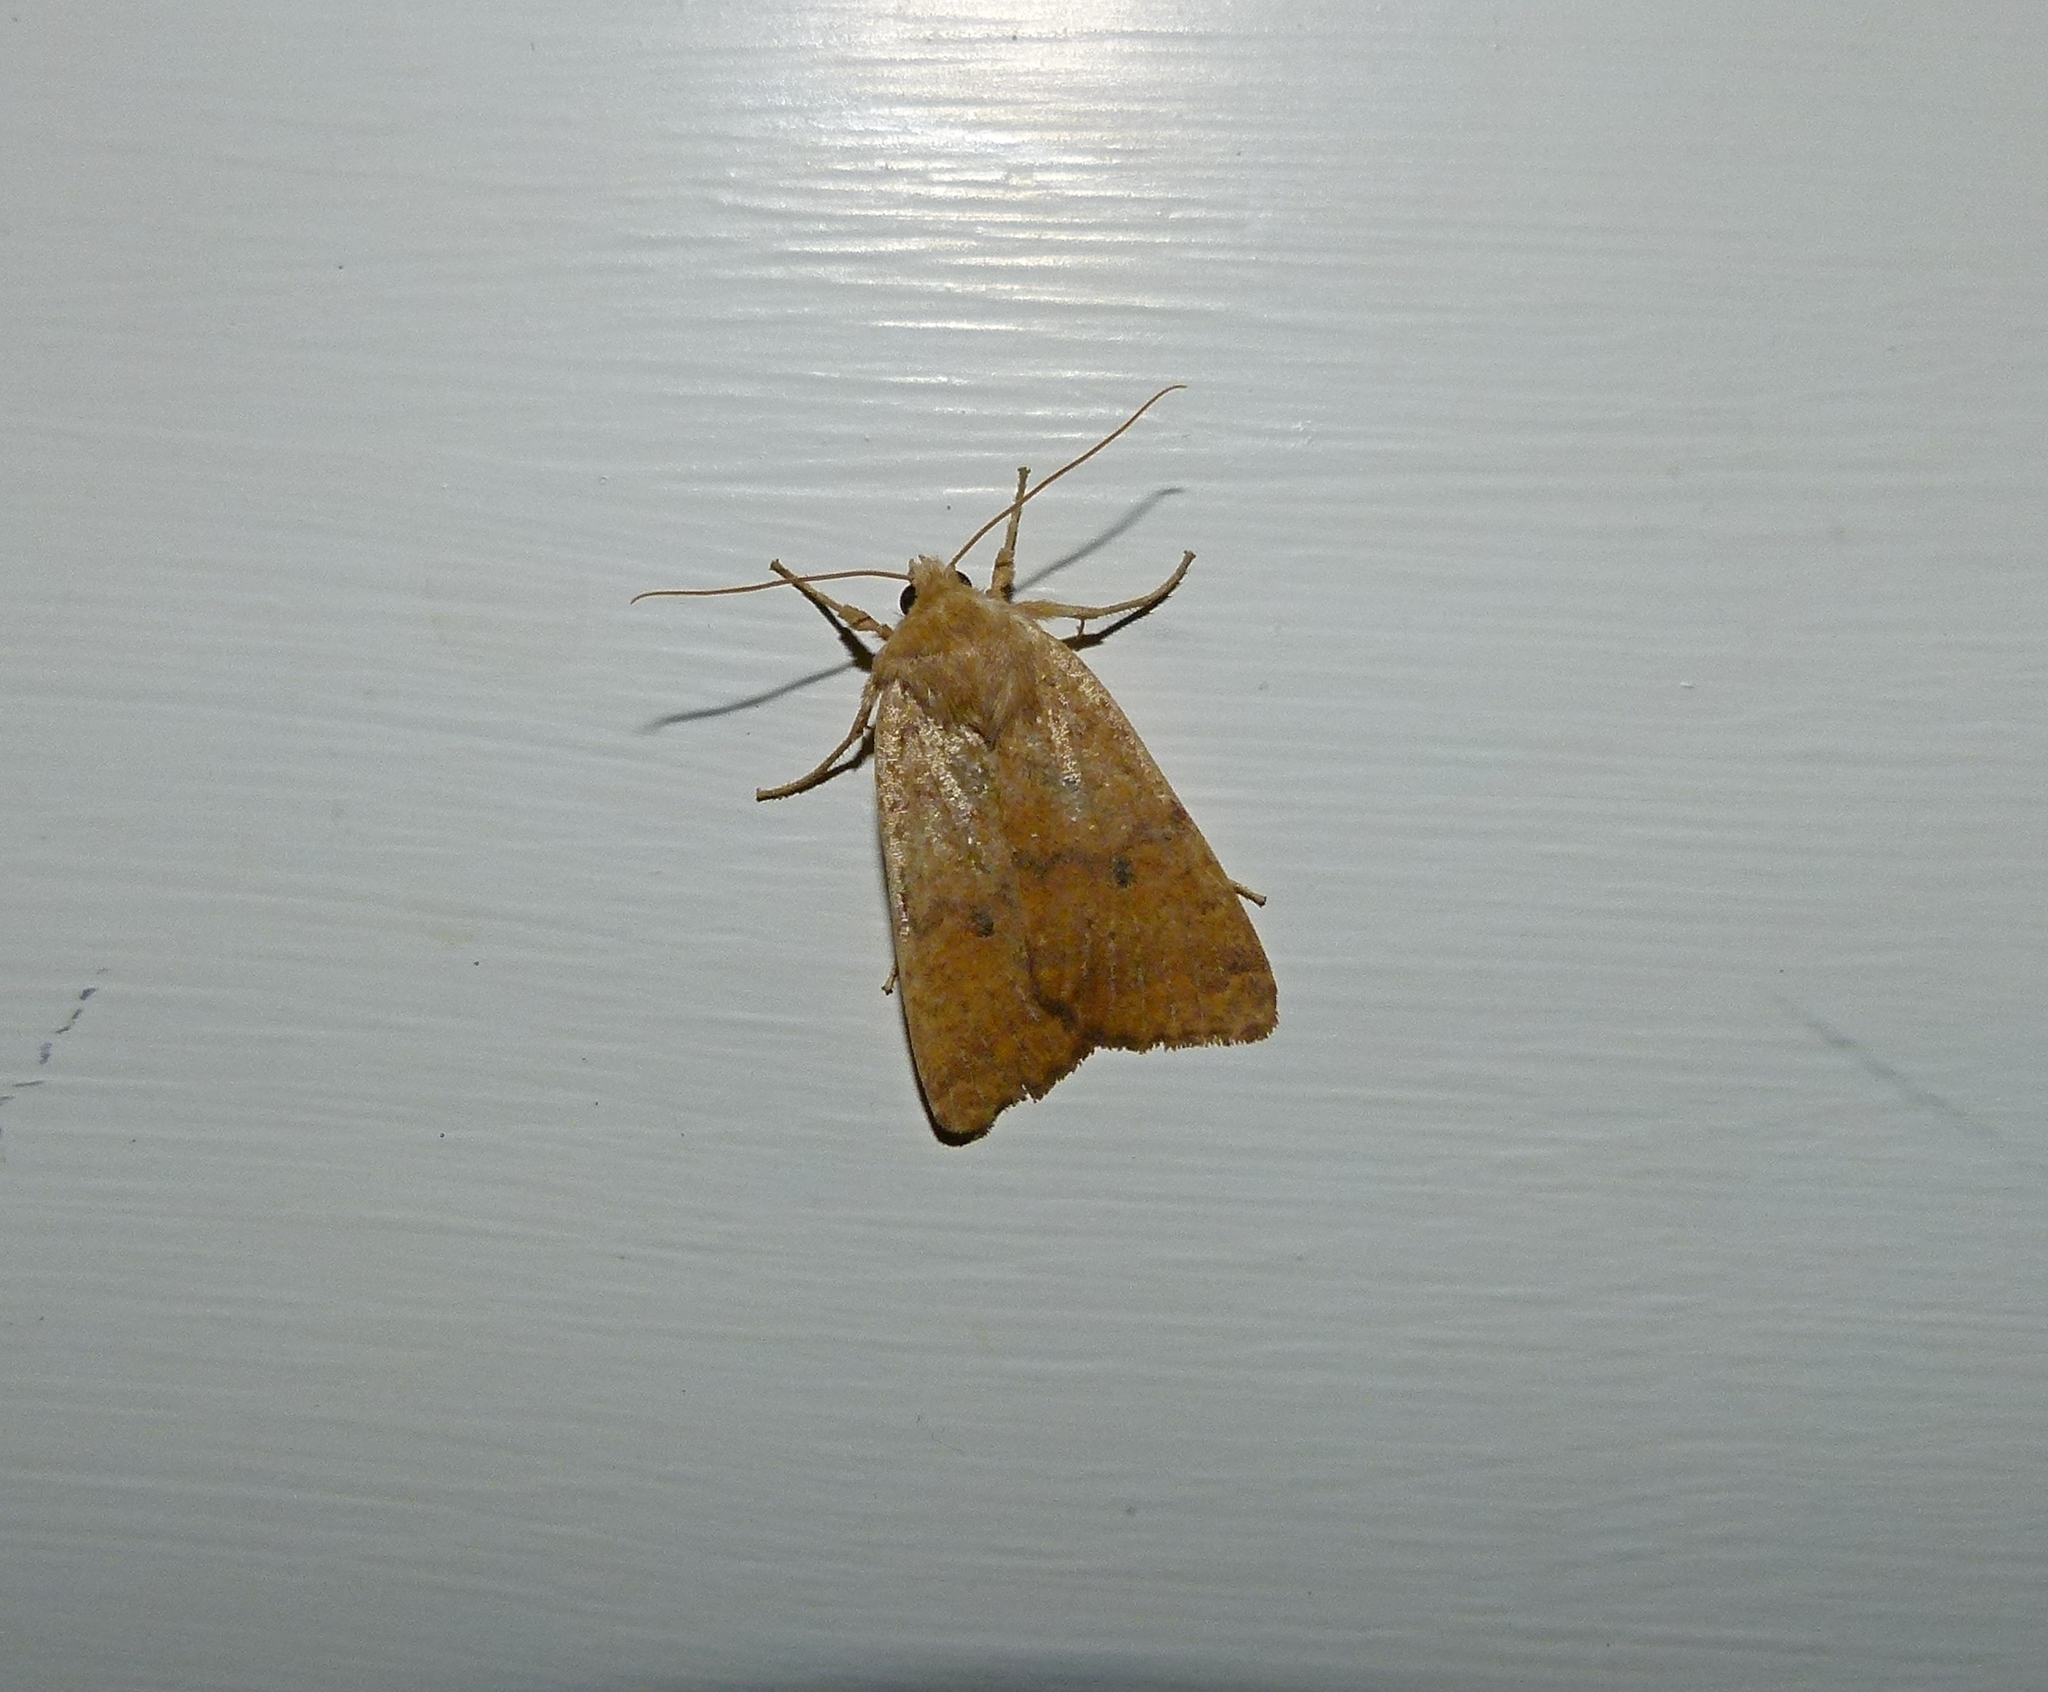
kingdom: Animalia
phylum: Arthropoda
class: Insecta
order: Lepidoptera
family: Noctuidae
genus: Agrochola
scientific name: Agrochola bicolorago
